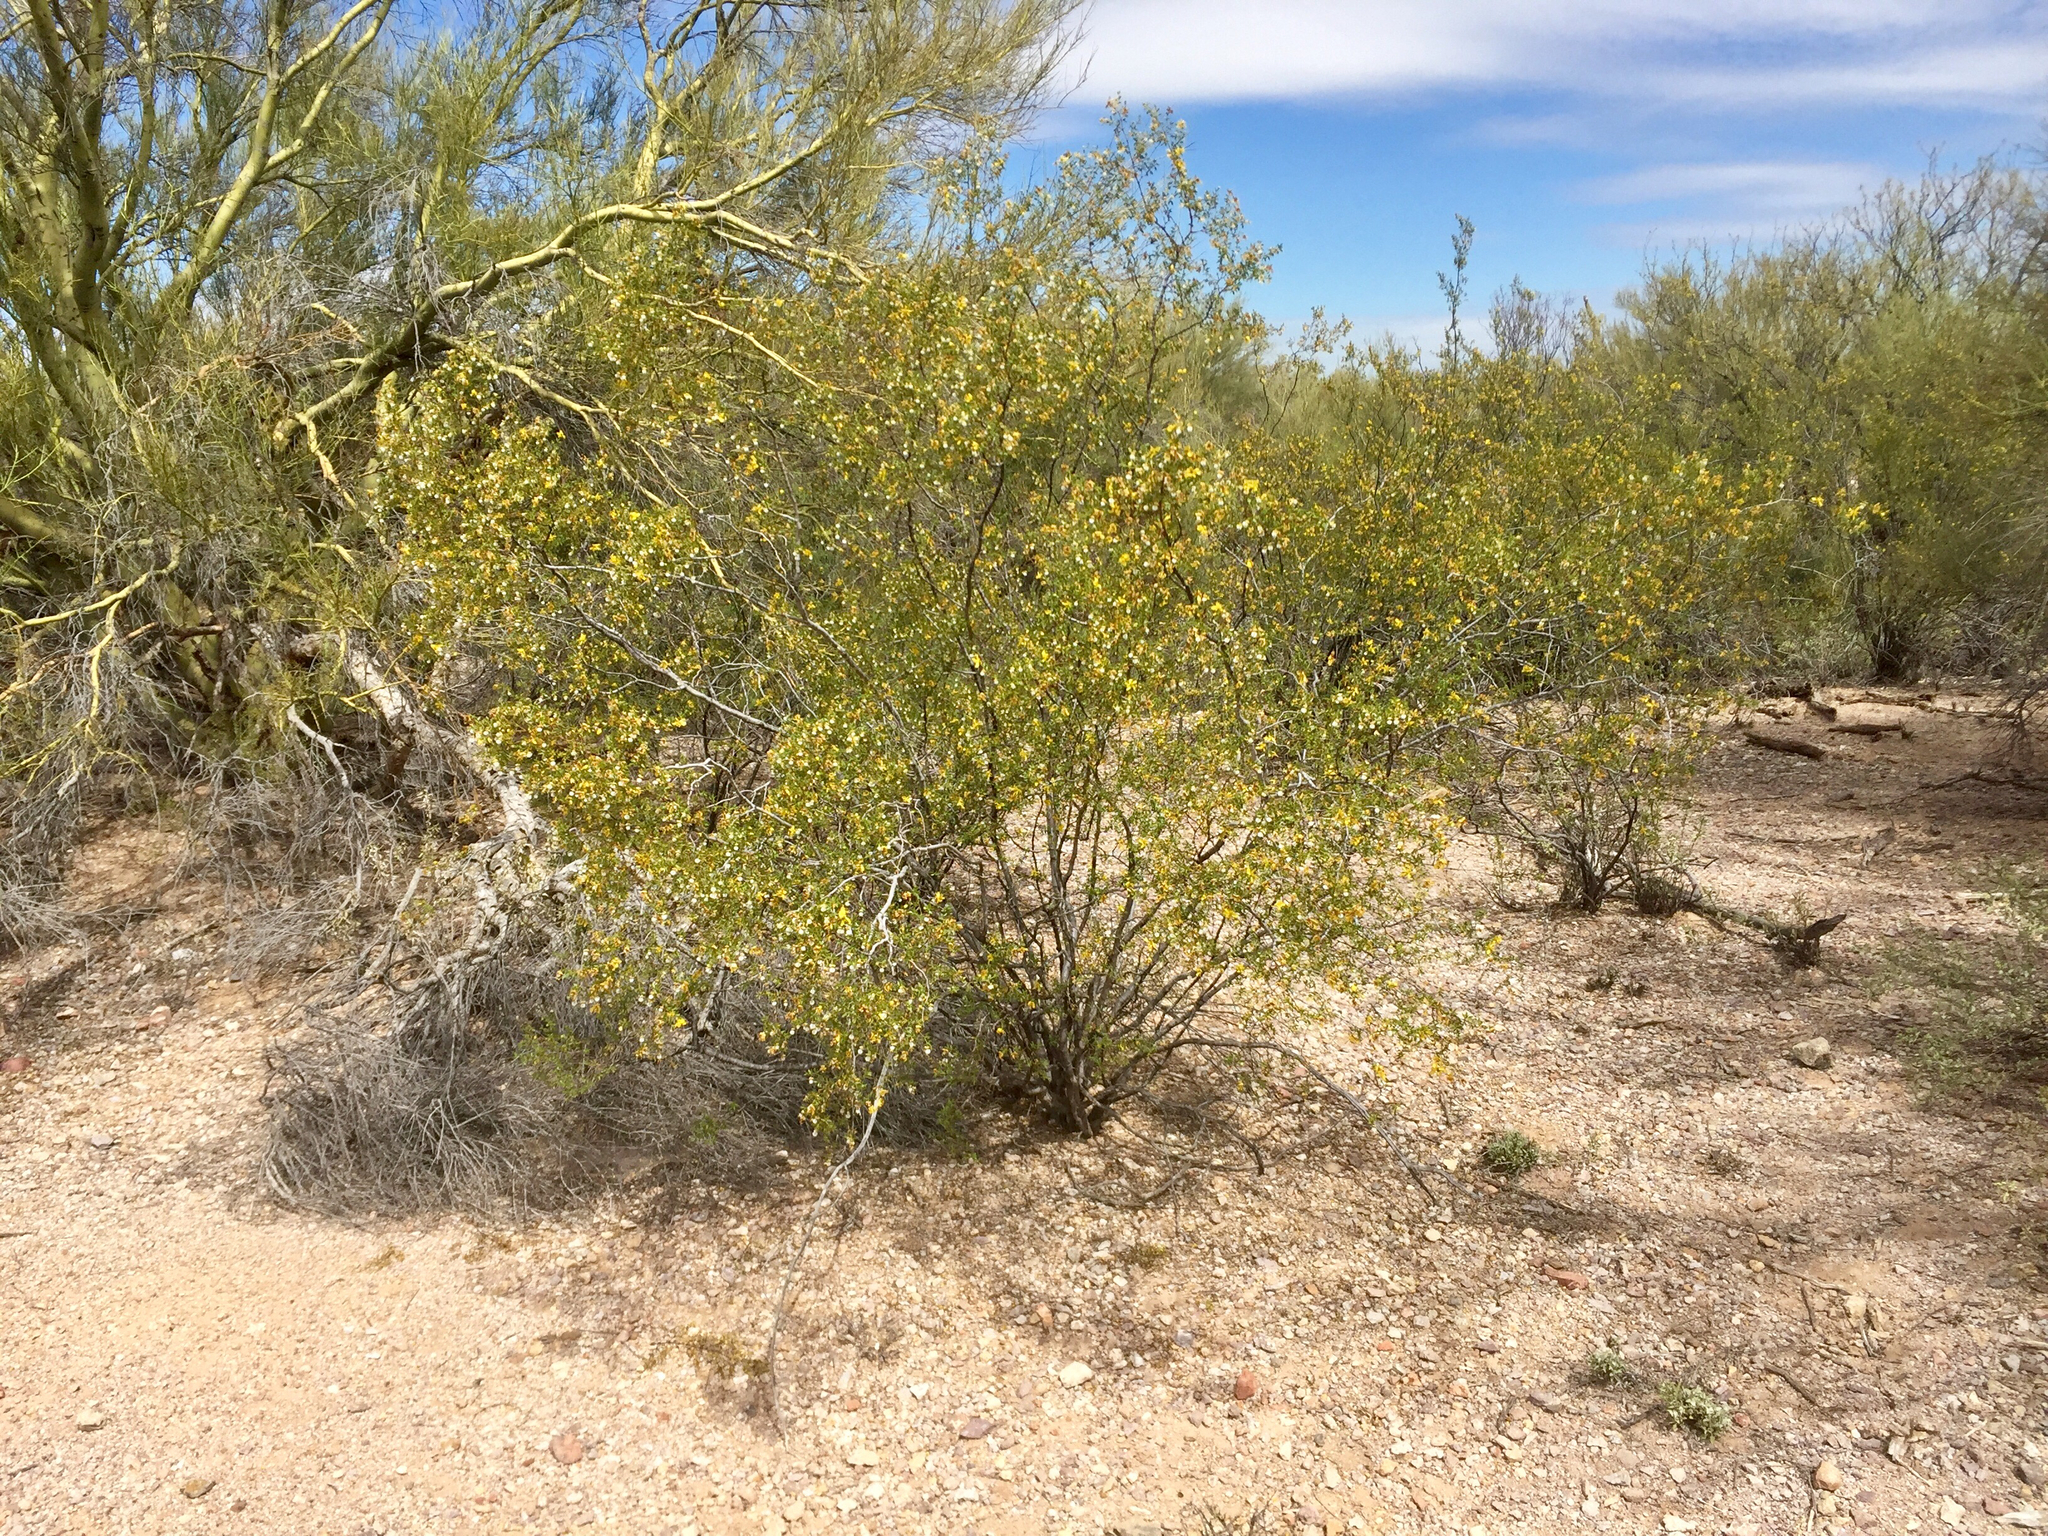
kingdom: Plantae
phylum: Tracheophyta
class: Magnoliopsida
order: Zygophyllales
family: Zygophyllaceae
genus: Larrea
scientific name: Larrea tridentata
